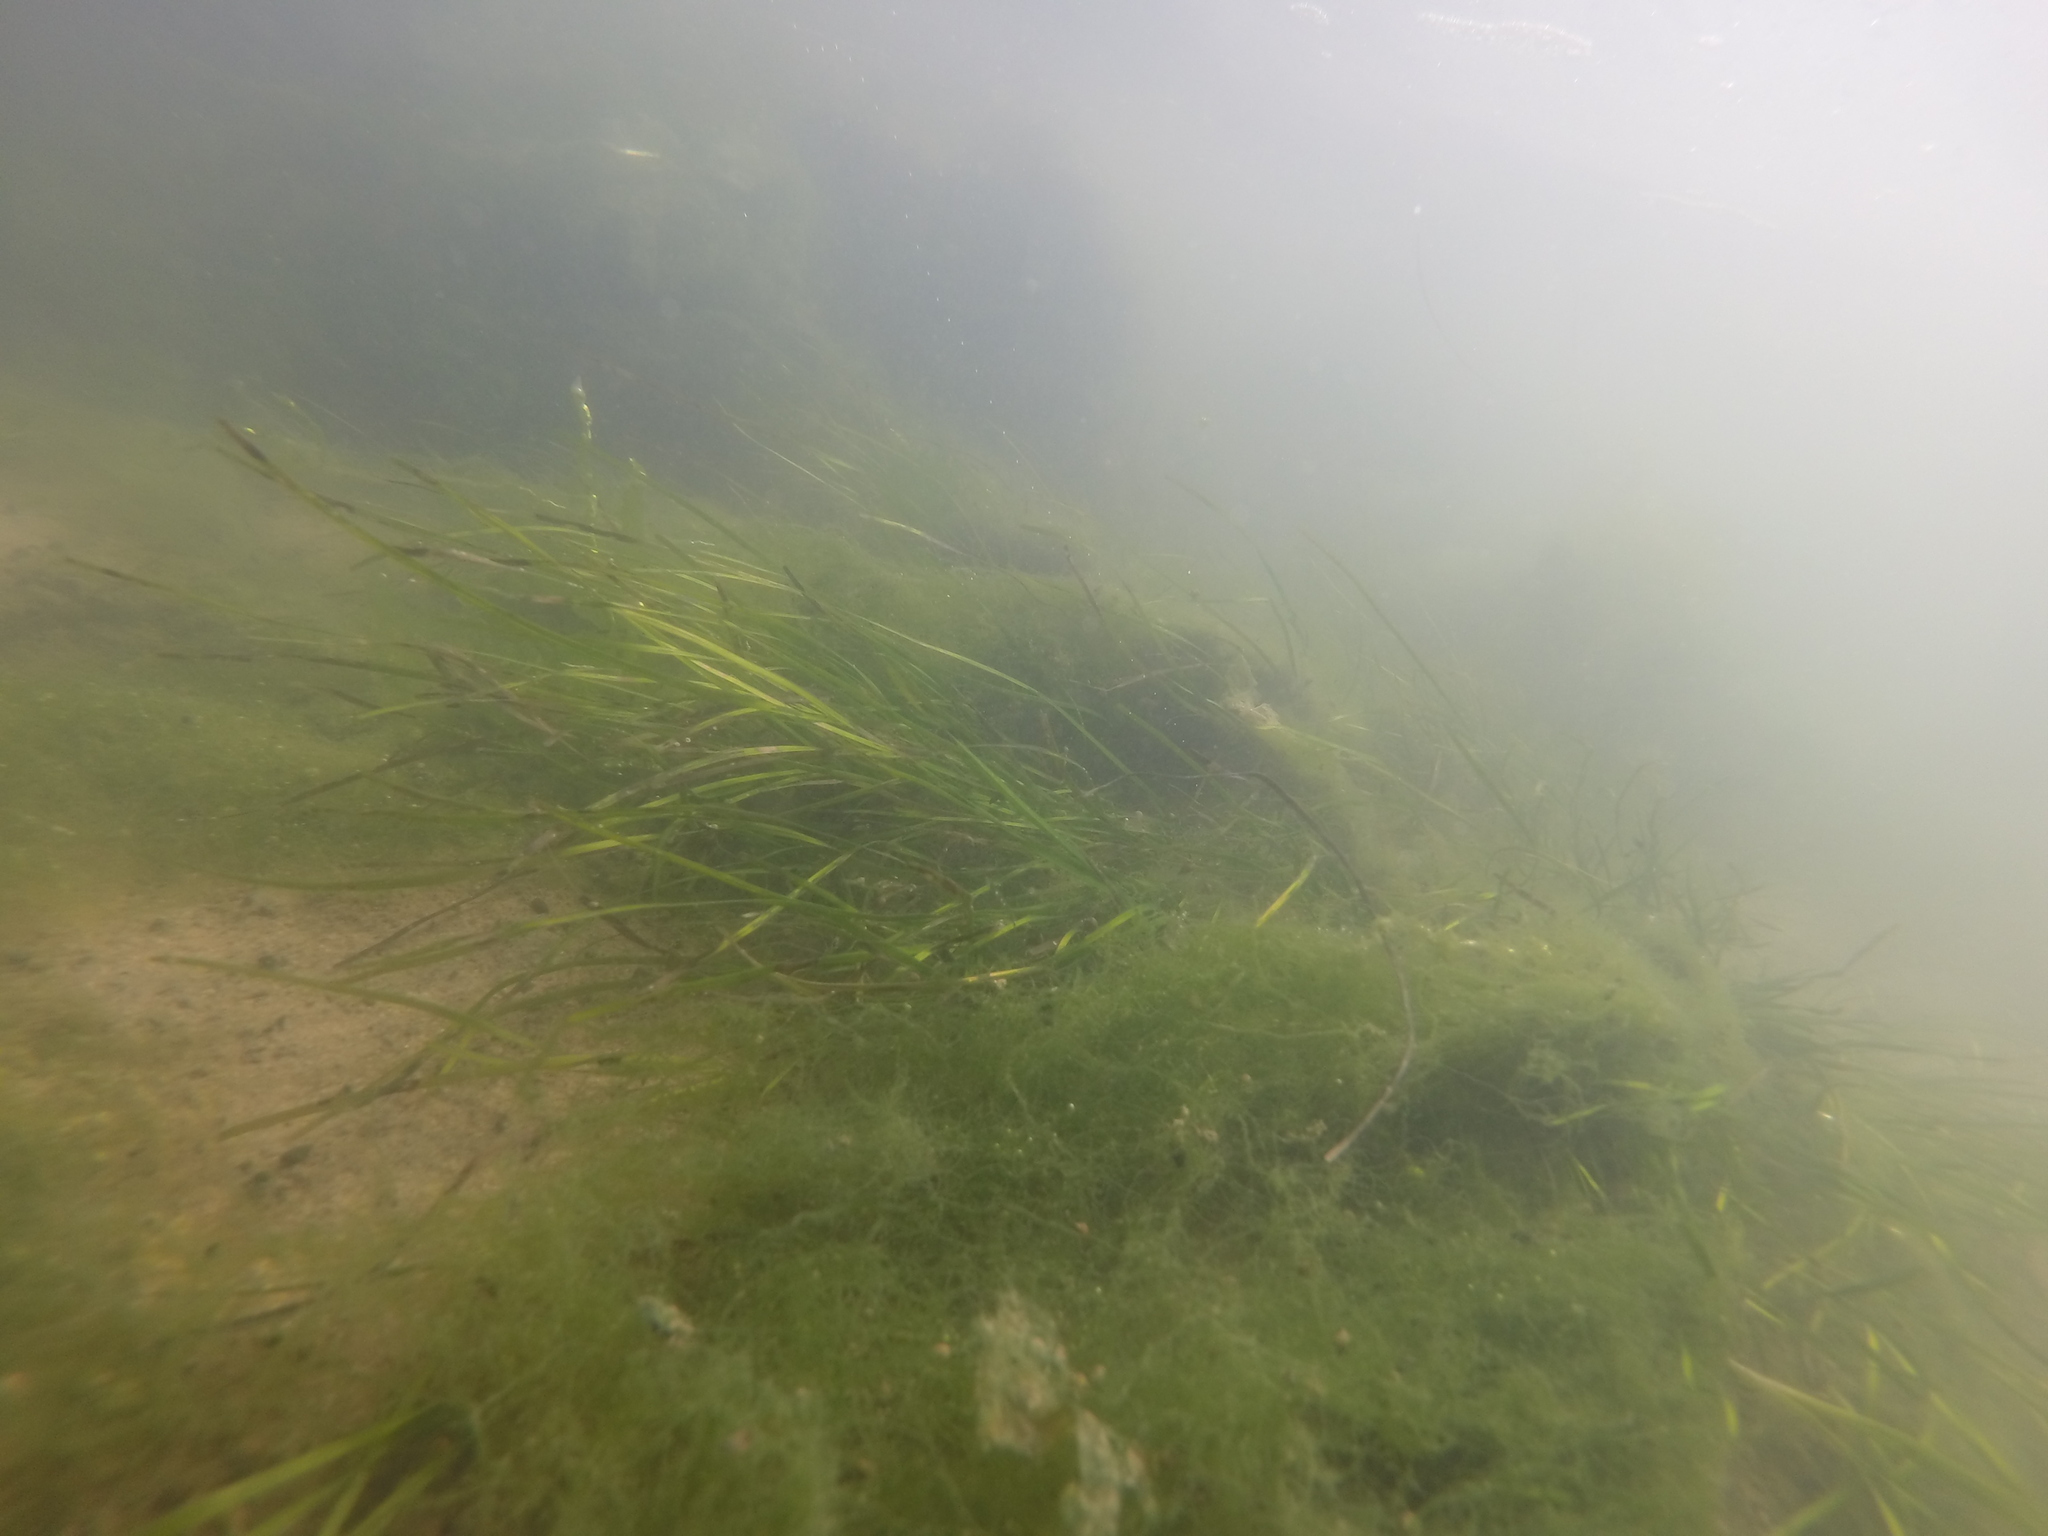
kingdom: Plantae
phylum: Tracheophyta
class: Liliopsida
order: Alismatales
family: Zosteraceae
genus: Zostera
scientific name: Zostera noltii
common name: Dwarf eelgrass
